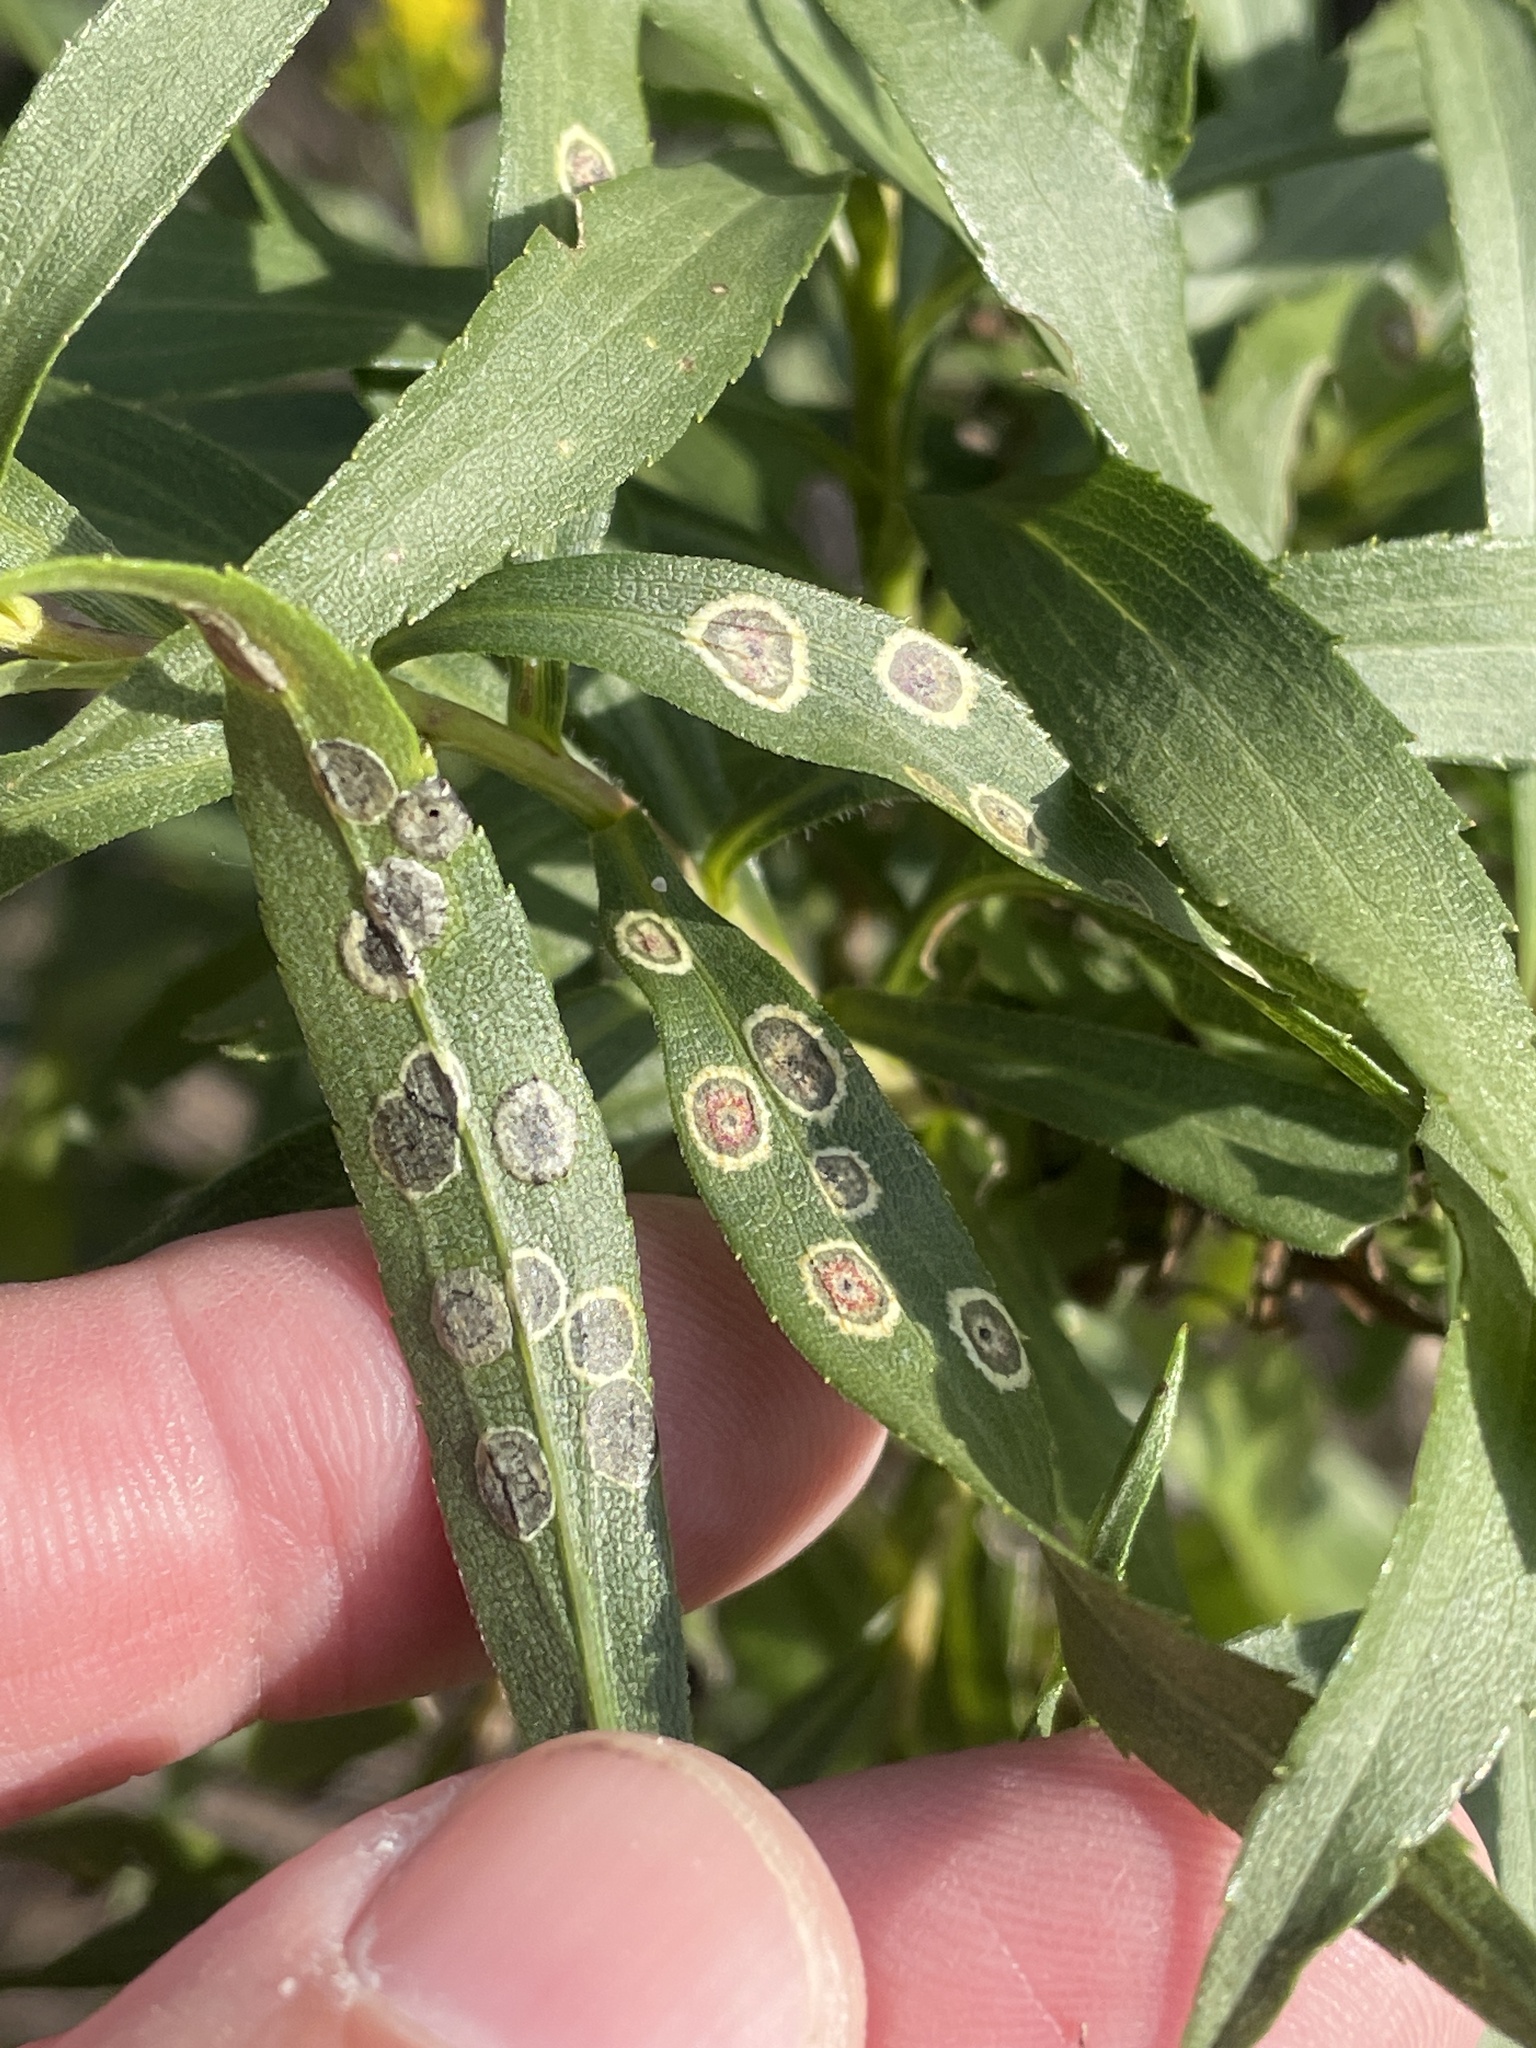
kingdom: Animalia
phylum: Arthropoda
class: Insecta
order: Diptera
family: Cecidomyiidae
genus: Asteromyia
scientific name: Asteromyia carbonifera
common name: Carbonifera goldenrod gall midge
